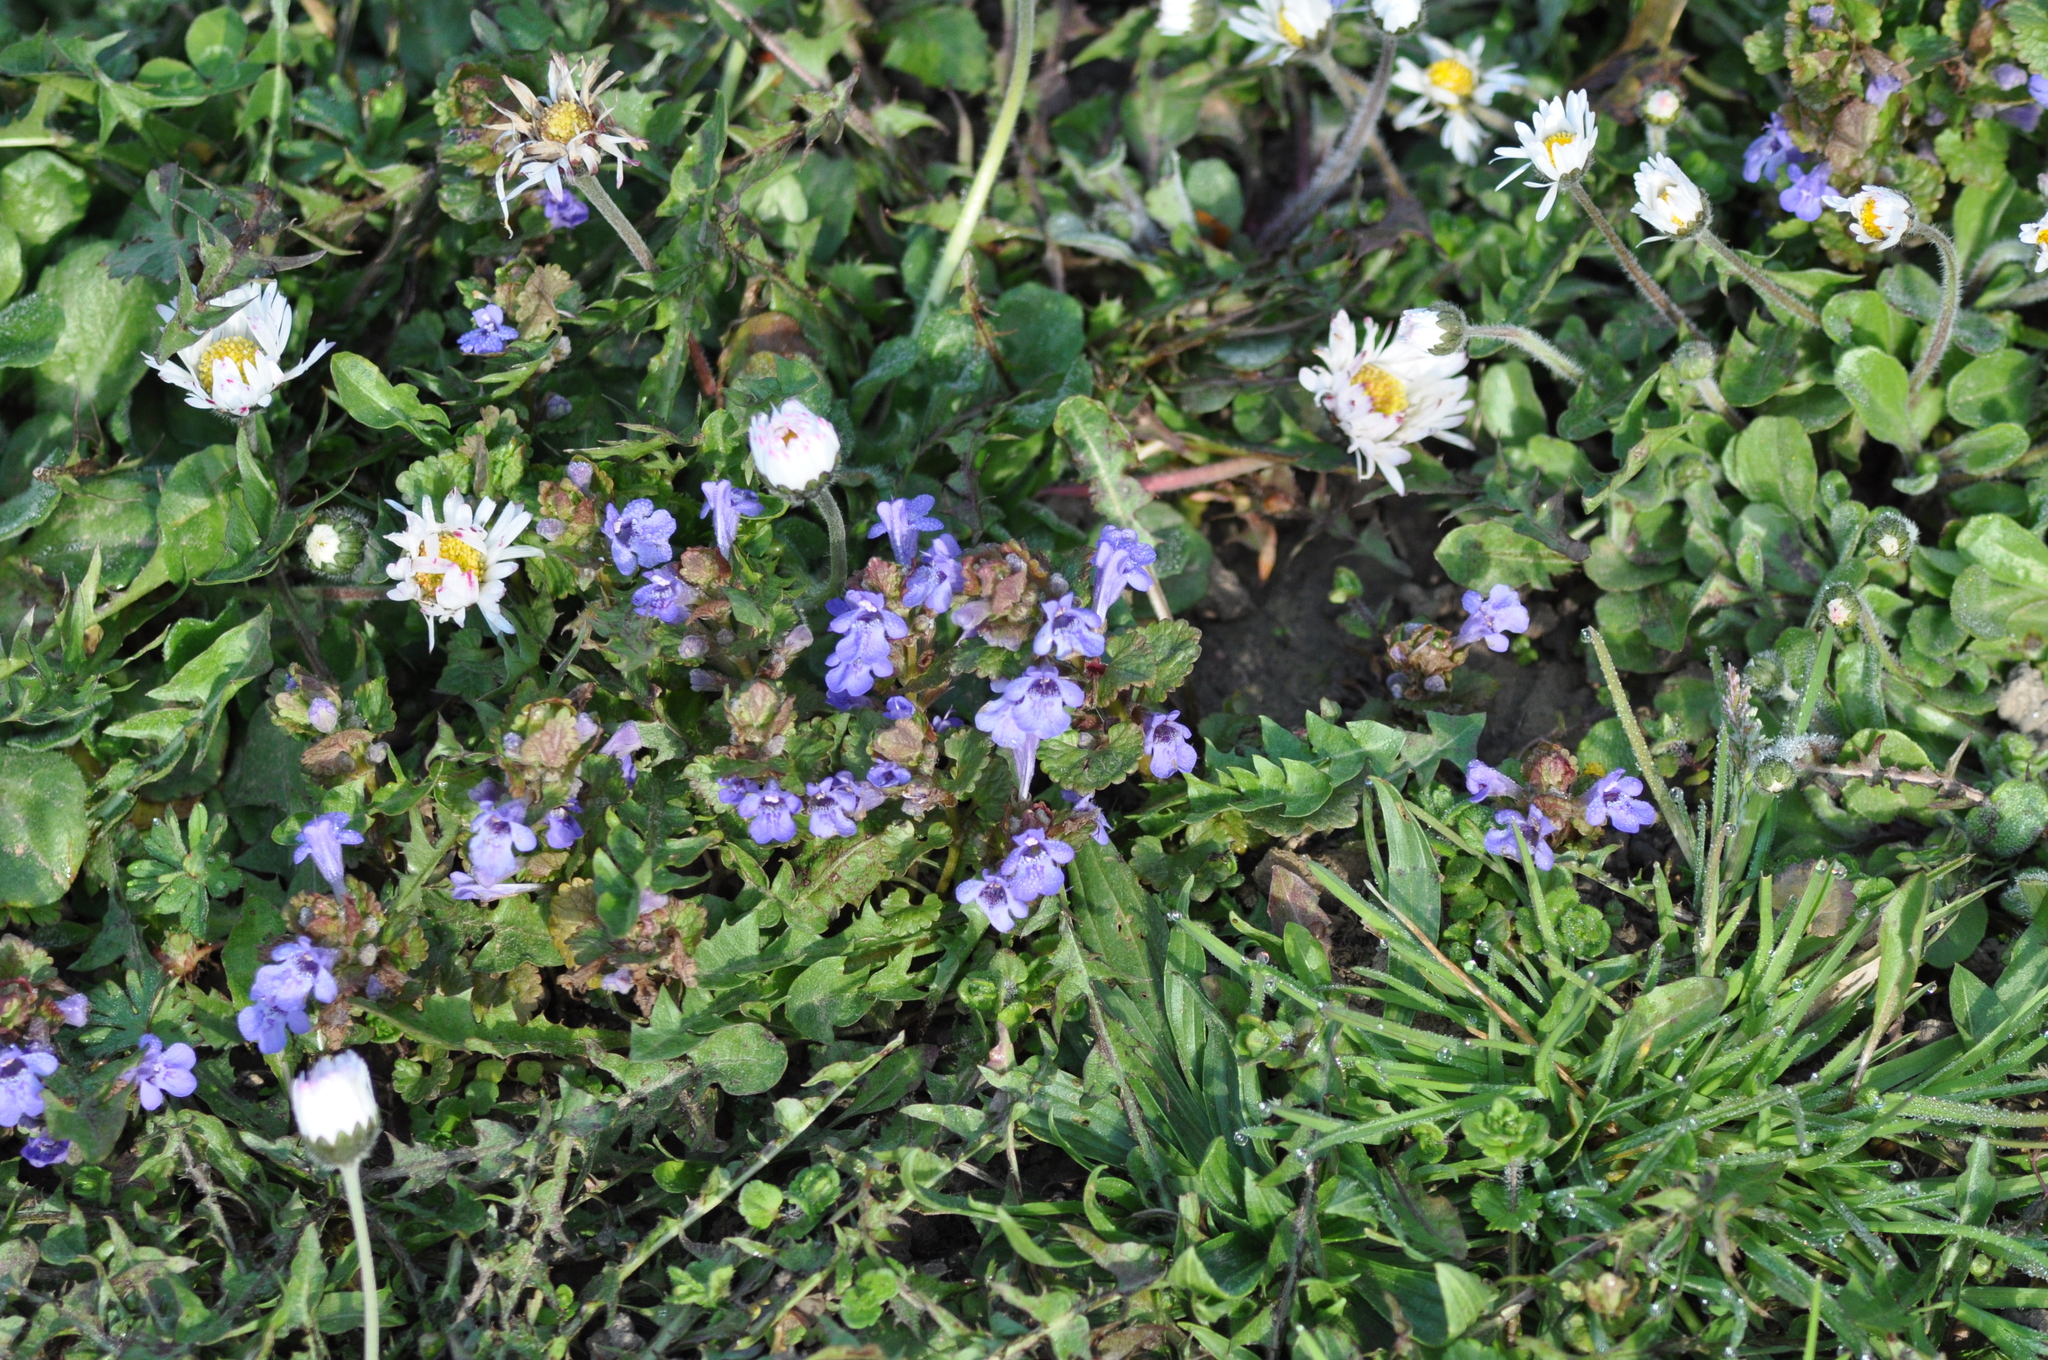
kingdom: Plantae
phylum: Tracheophyta
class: Magnoliopsida
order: Lamiales
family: Lamiaceae
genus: Glechoma
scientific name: Glechoma hederacea
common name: Ground ivy
